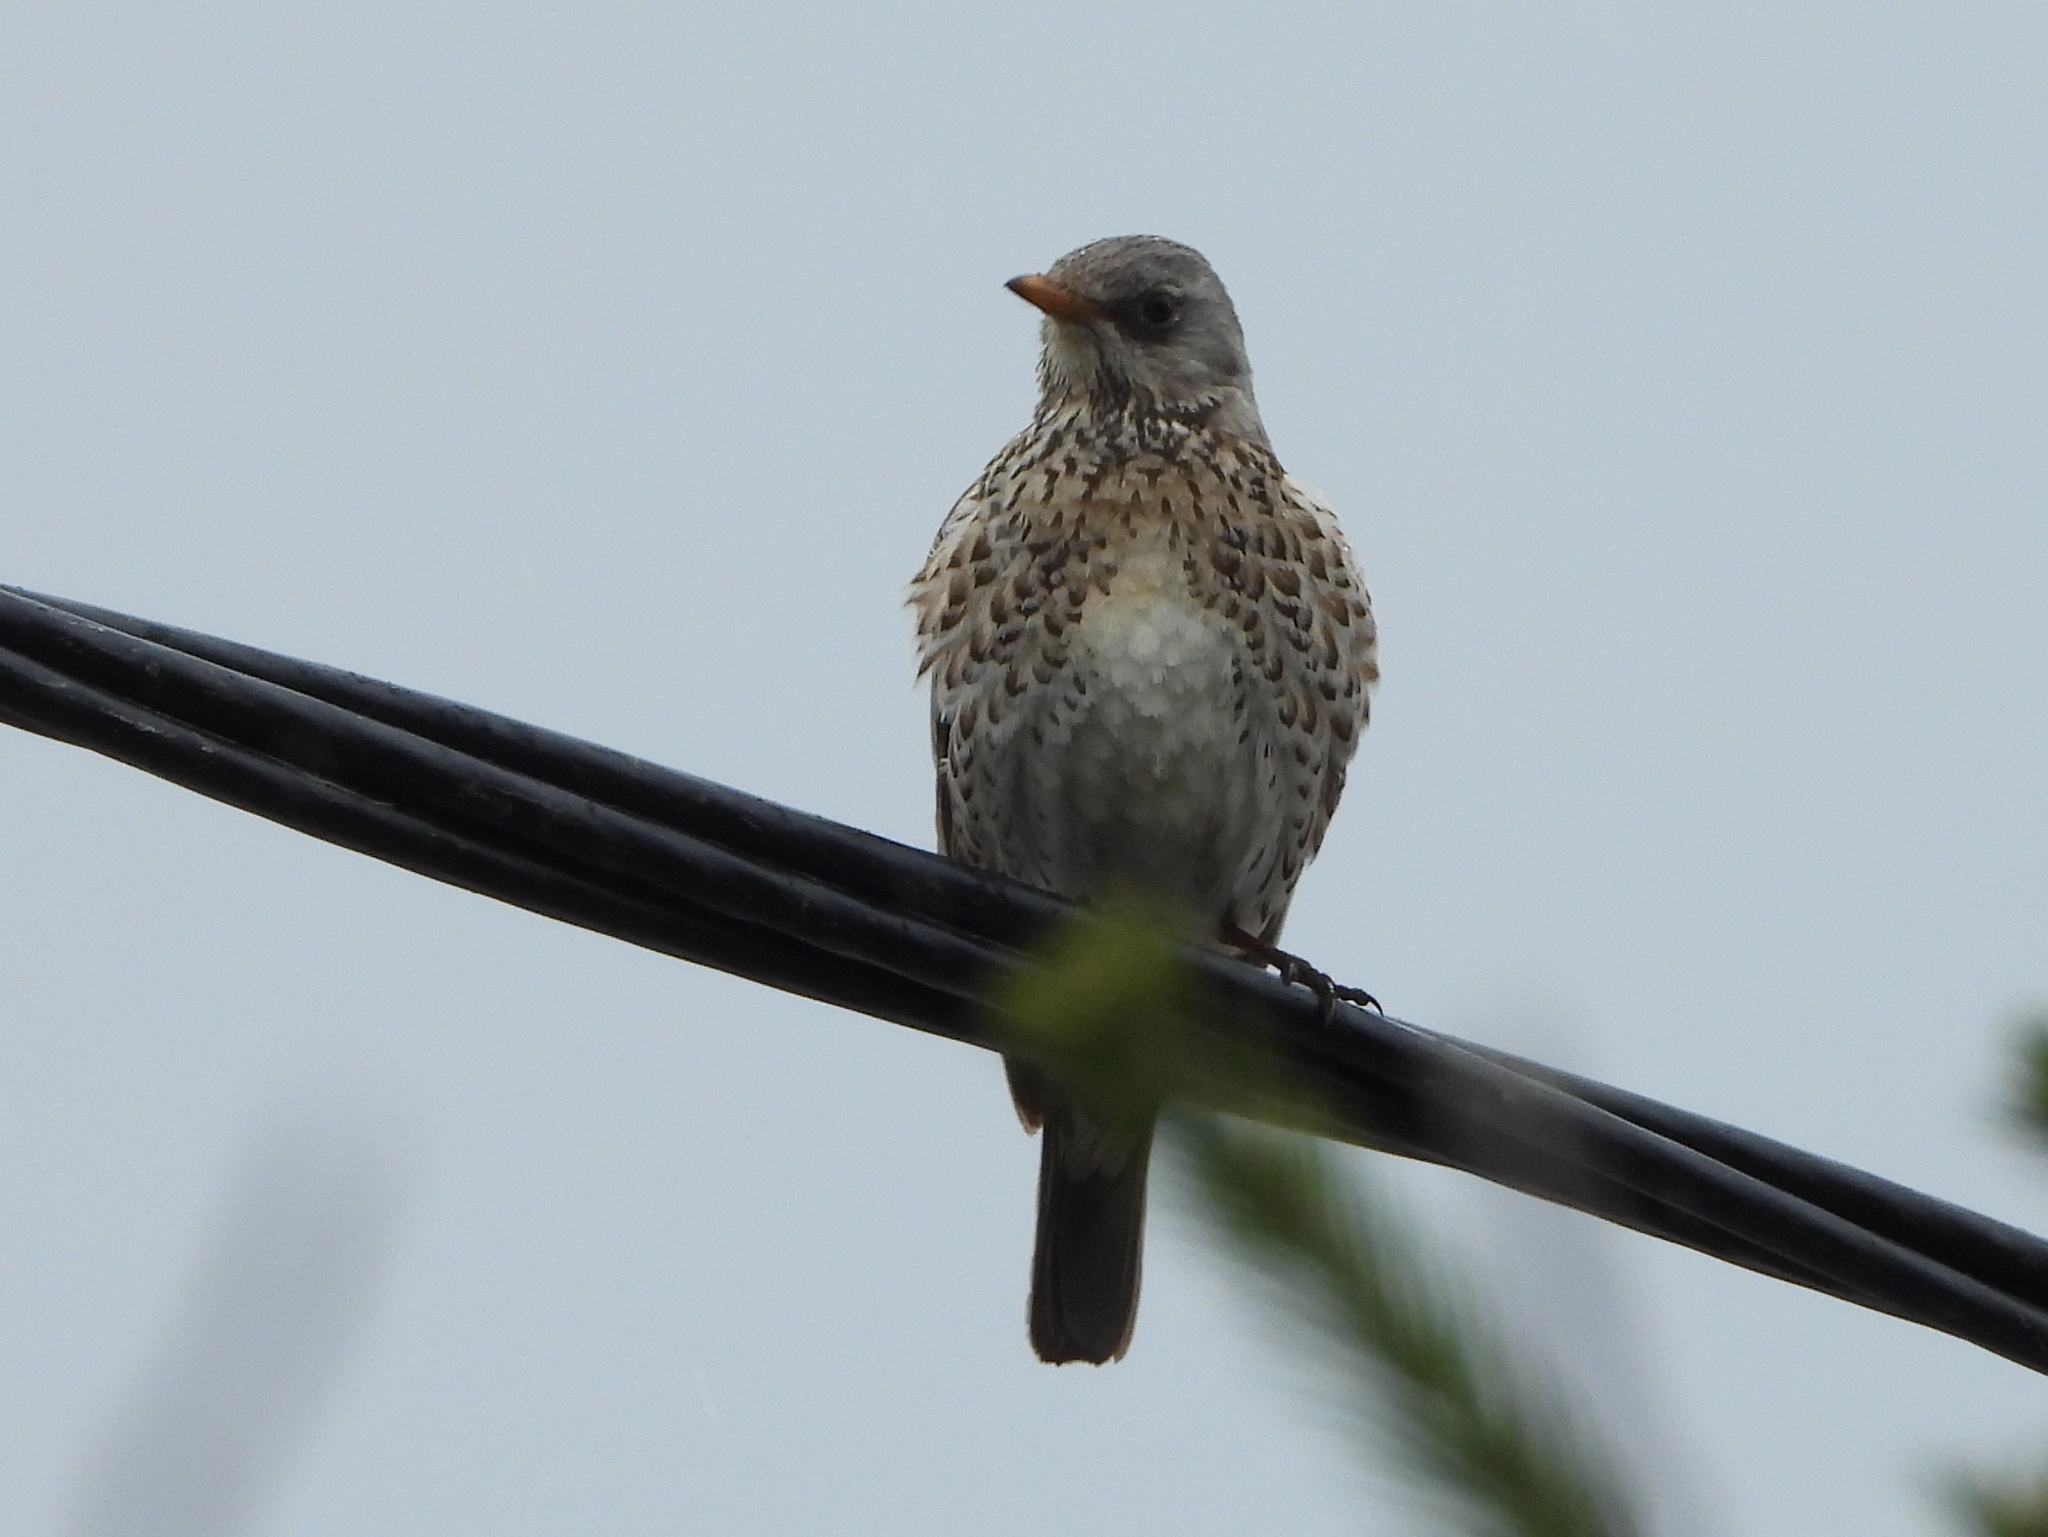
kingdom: Animalia
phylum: Chordata
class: Aves
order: Passeriformes
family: Turdidae
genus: Turdus
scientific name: Turdus pilaris
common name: Fieldfare
